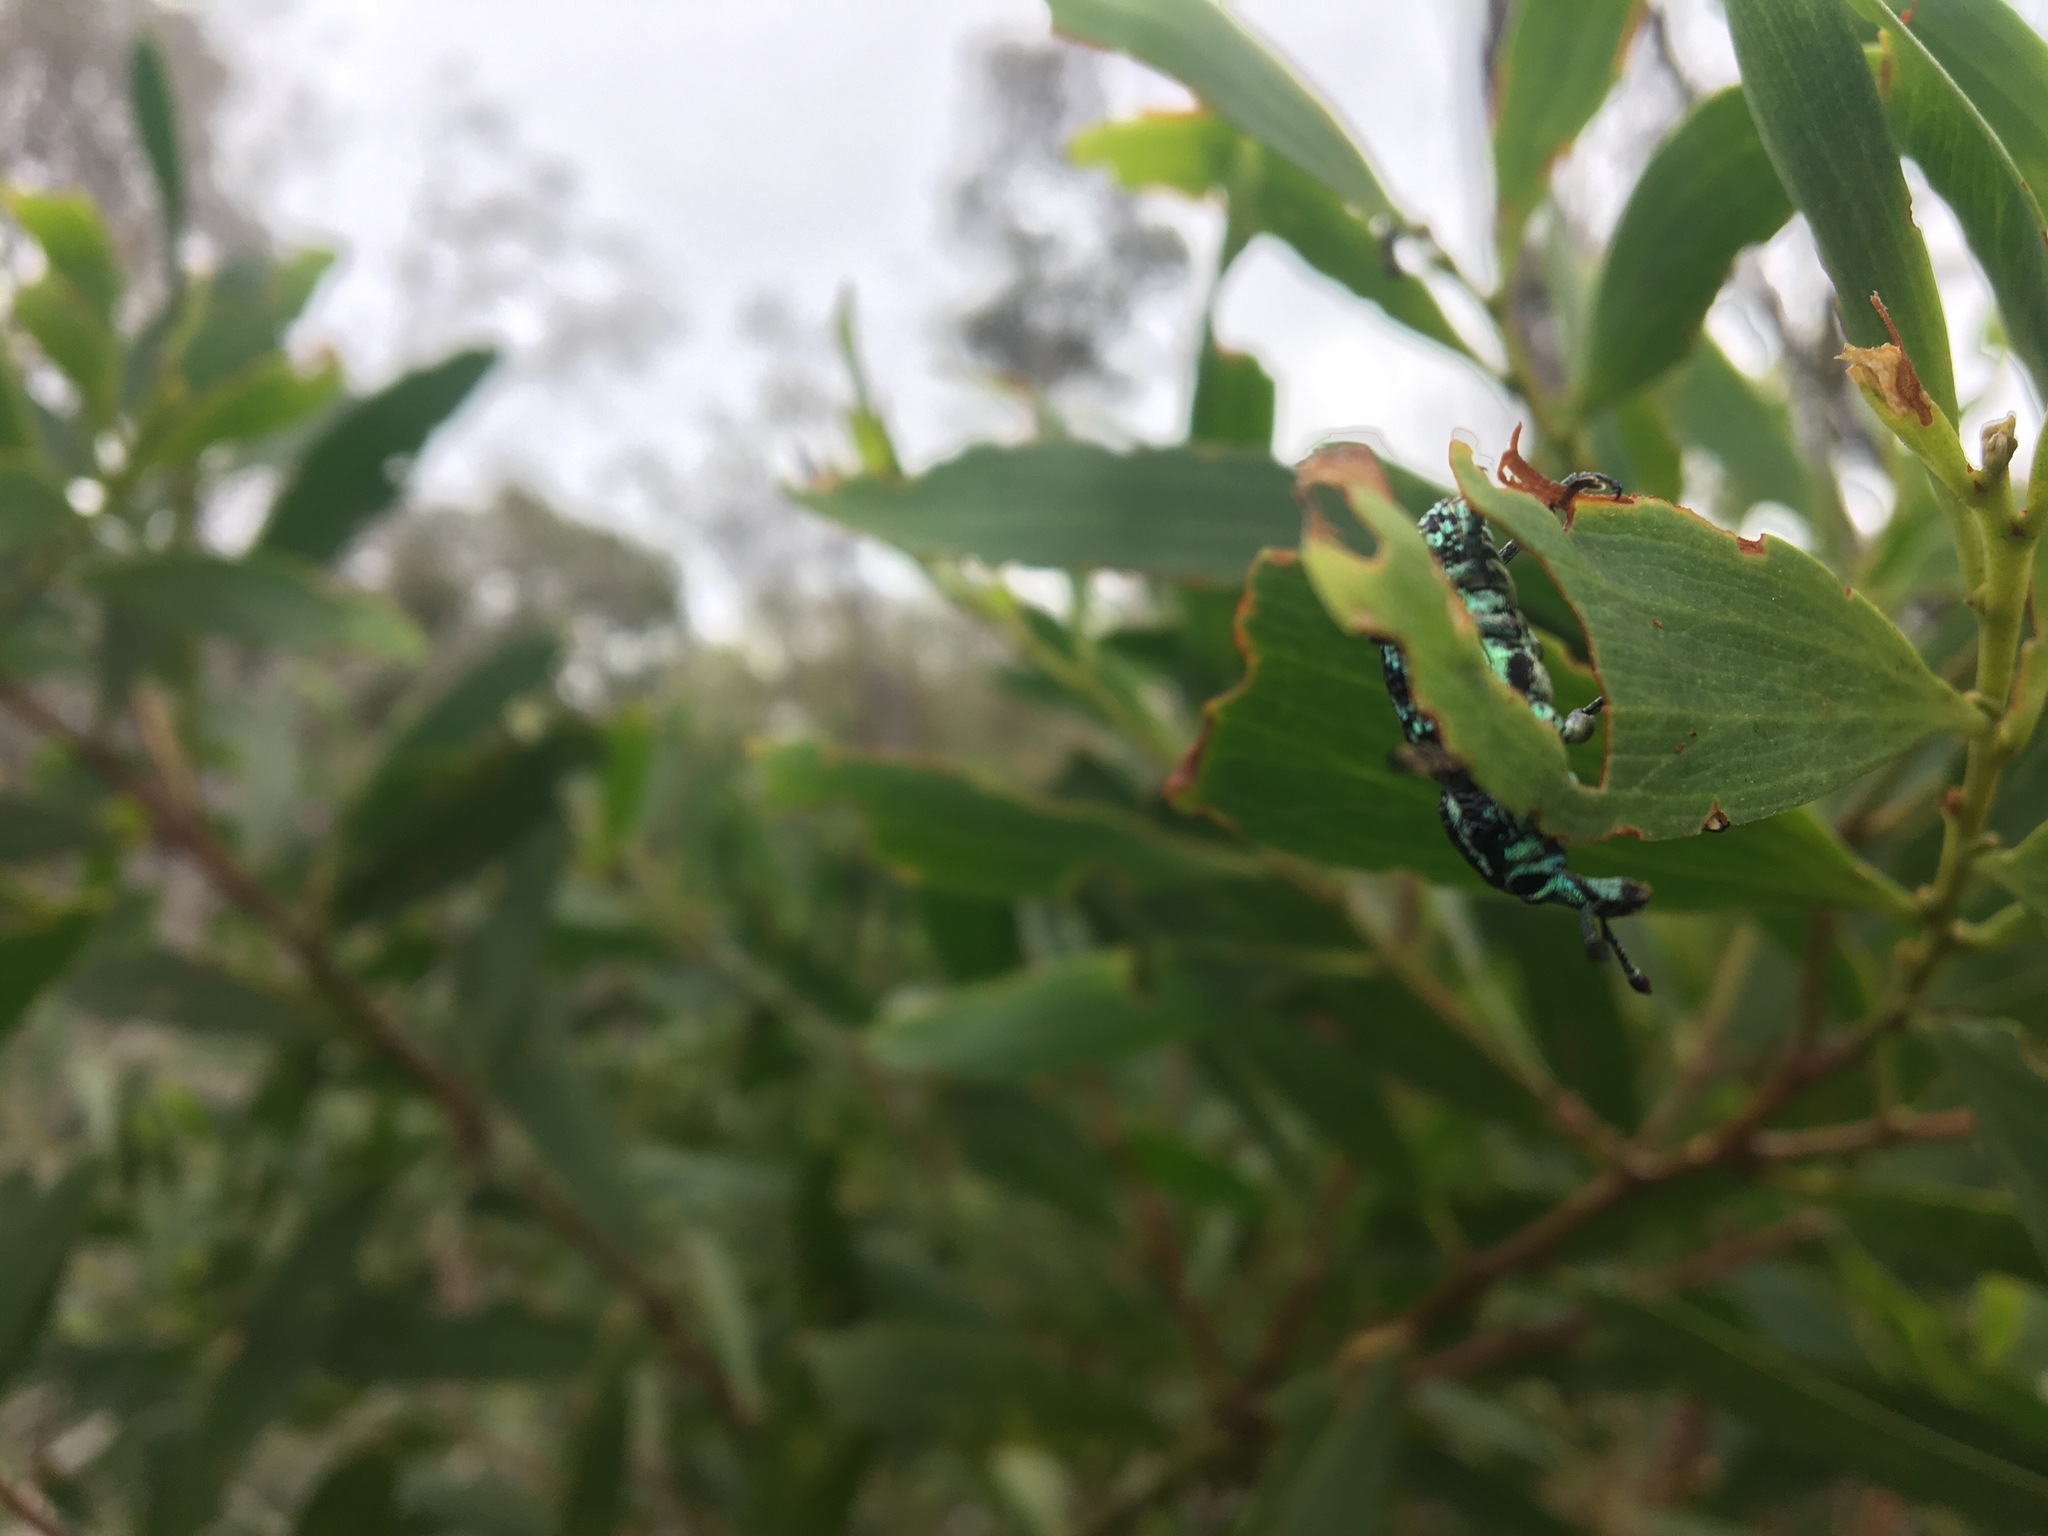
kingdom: Animalia
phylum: Arthropoda
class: Insecta
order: Coleoptera
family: Curculionidae
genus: Chrysolopus
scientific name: Chrysolopus spectabilis
